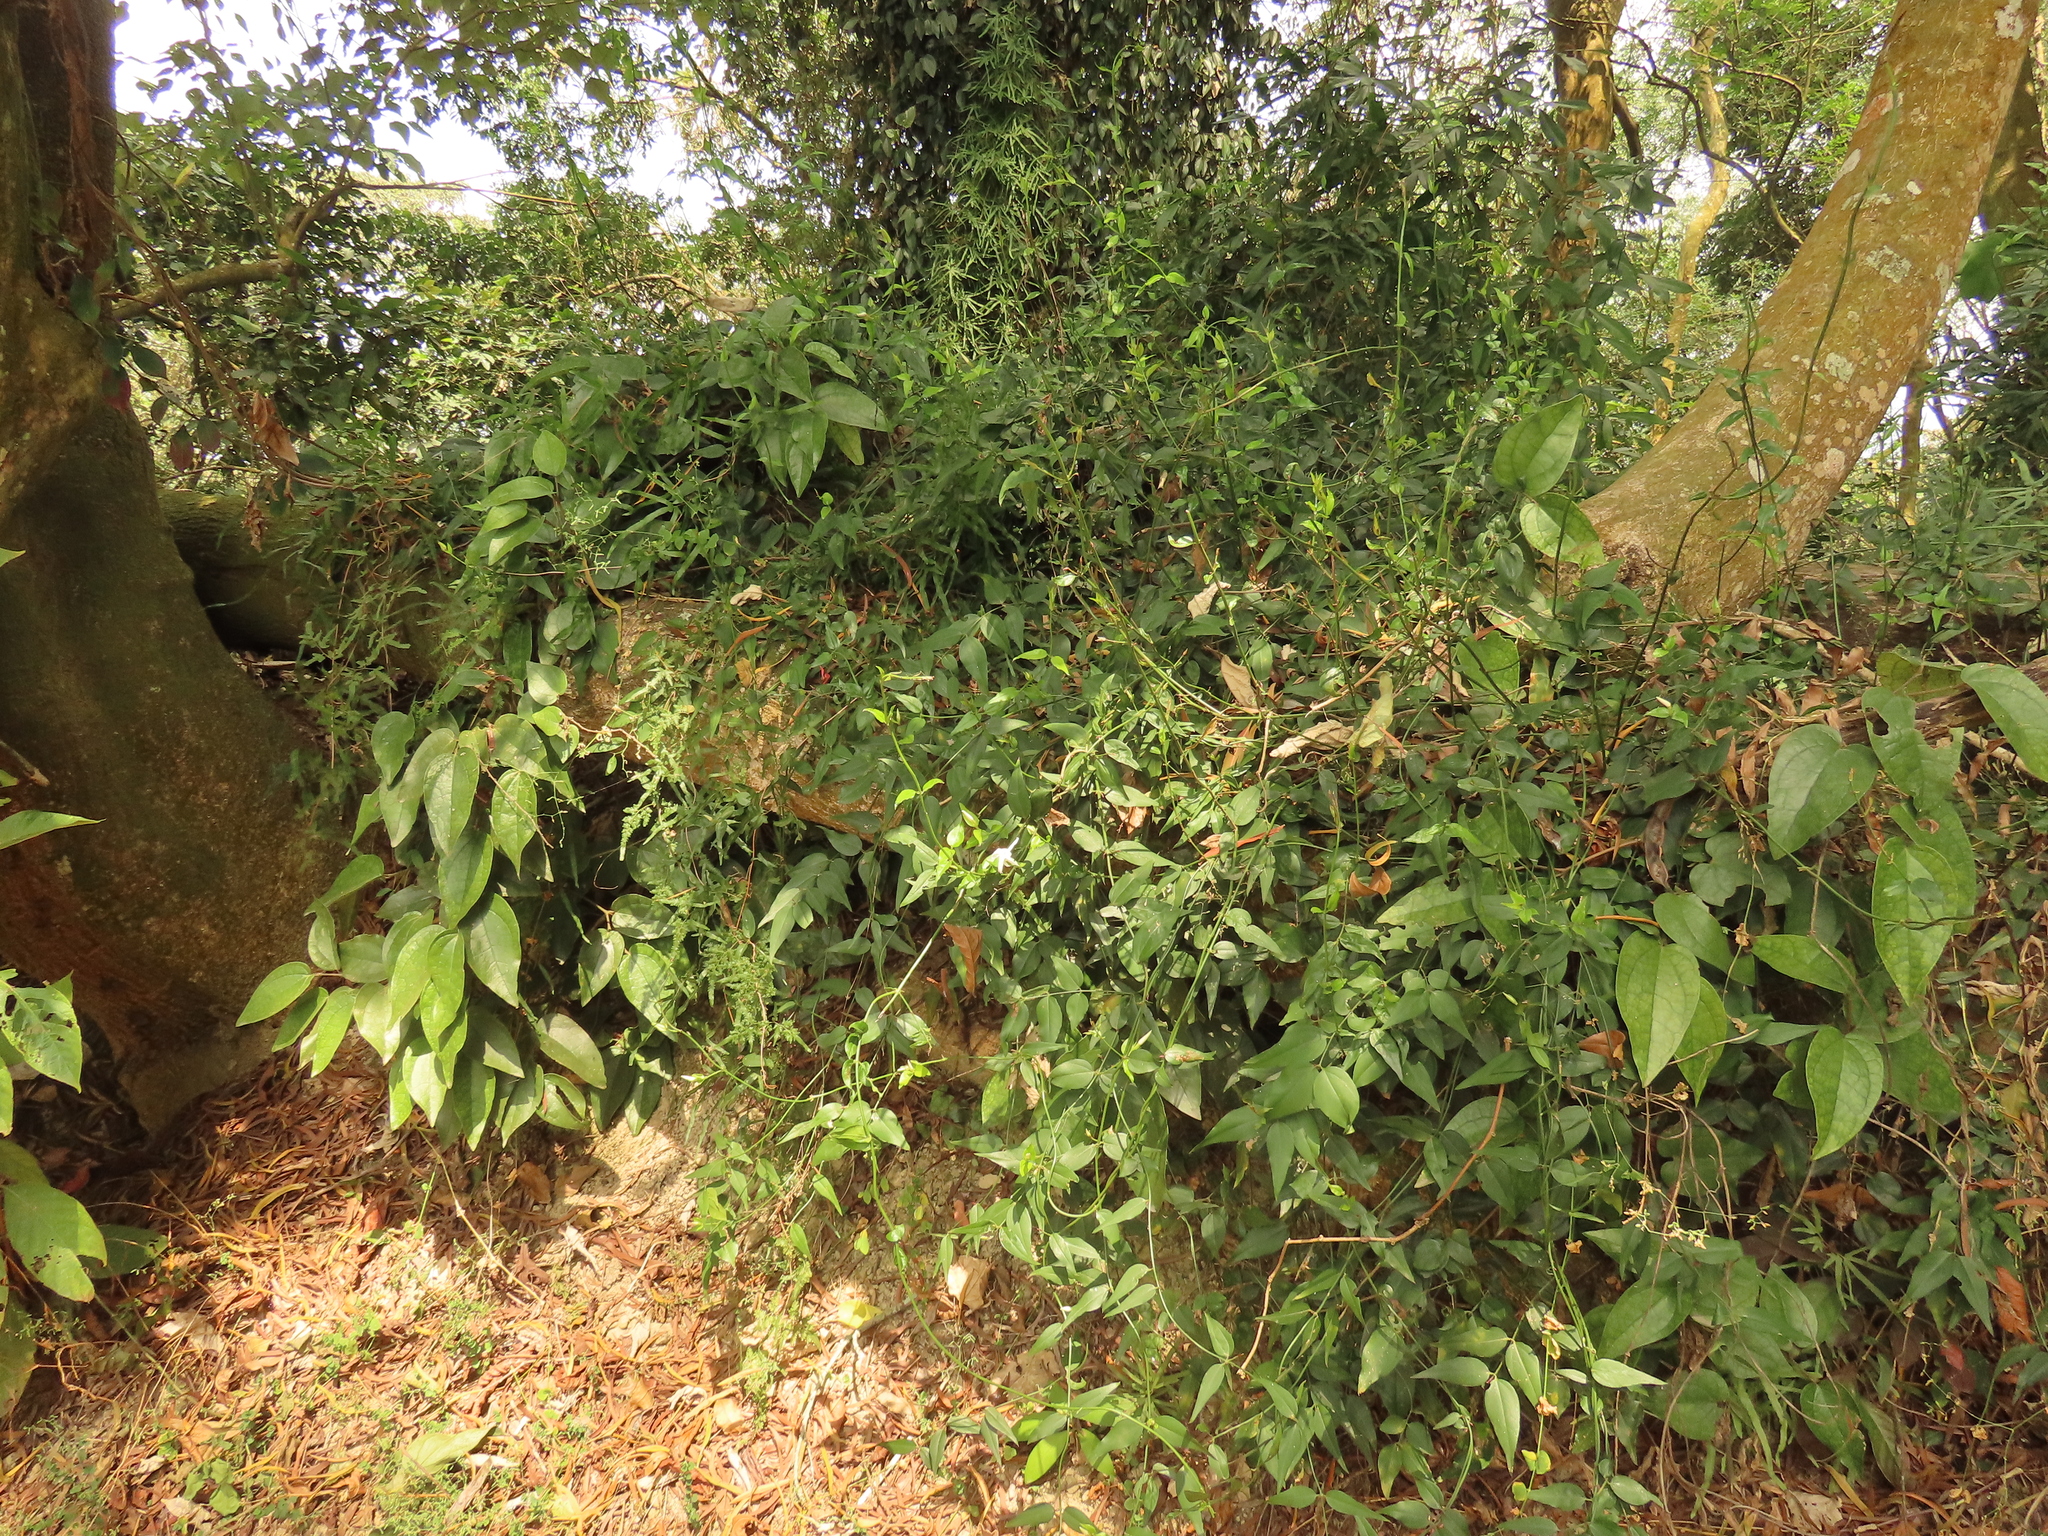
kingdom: Plantae
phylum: Tracheophyta
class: Magnoliopsida
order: Lamiales
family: Oleaceae
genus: Jasminum
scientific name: Jasminum nervosum
